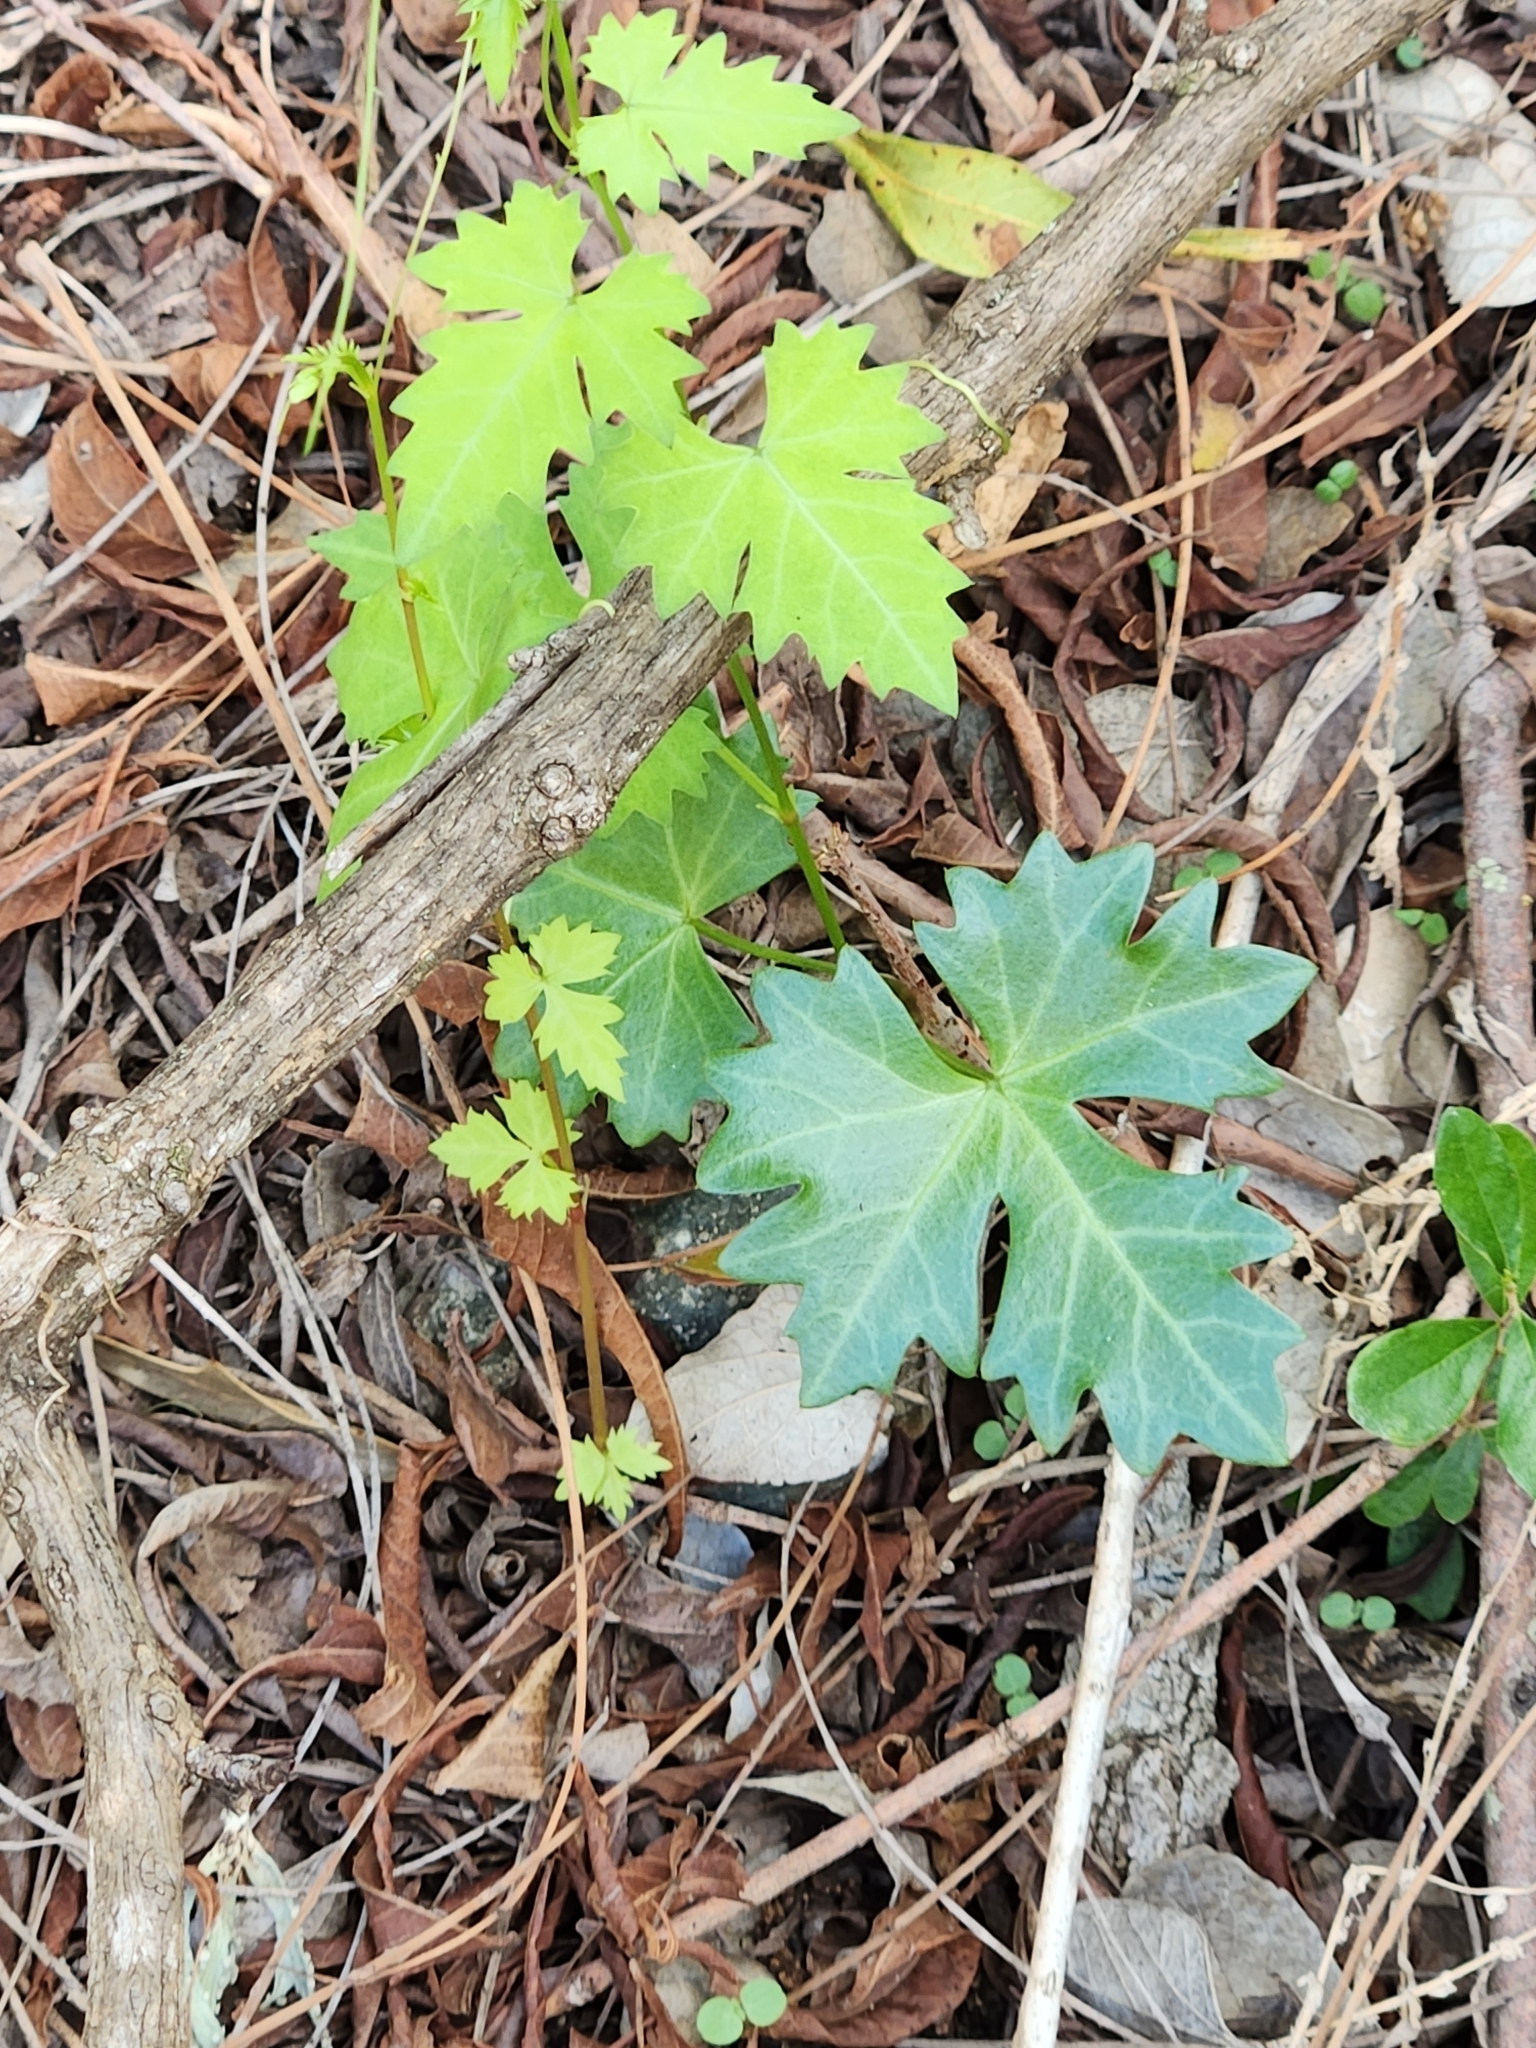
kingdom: Plantae
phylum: Tracheophyta
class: Magnoliopsida
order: Vitales
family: Vitaceae
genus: Cissus
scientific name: Cissus trifoliata
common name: Vine-sorrel
